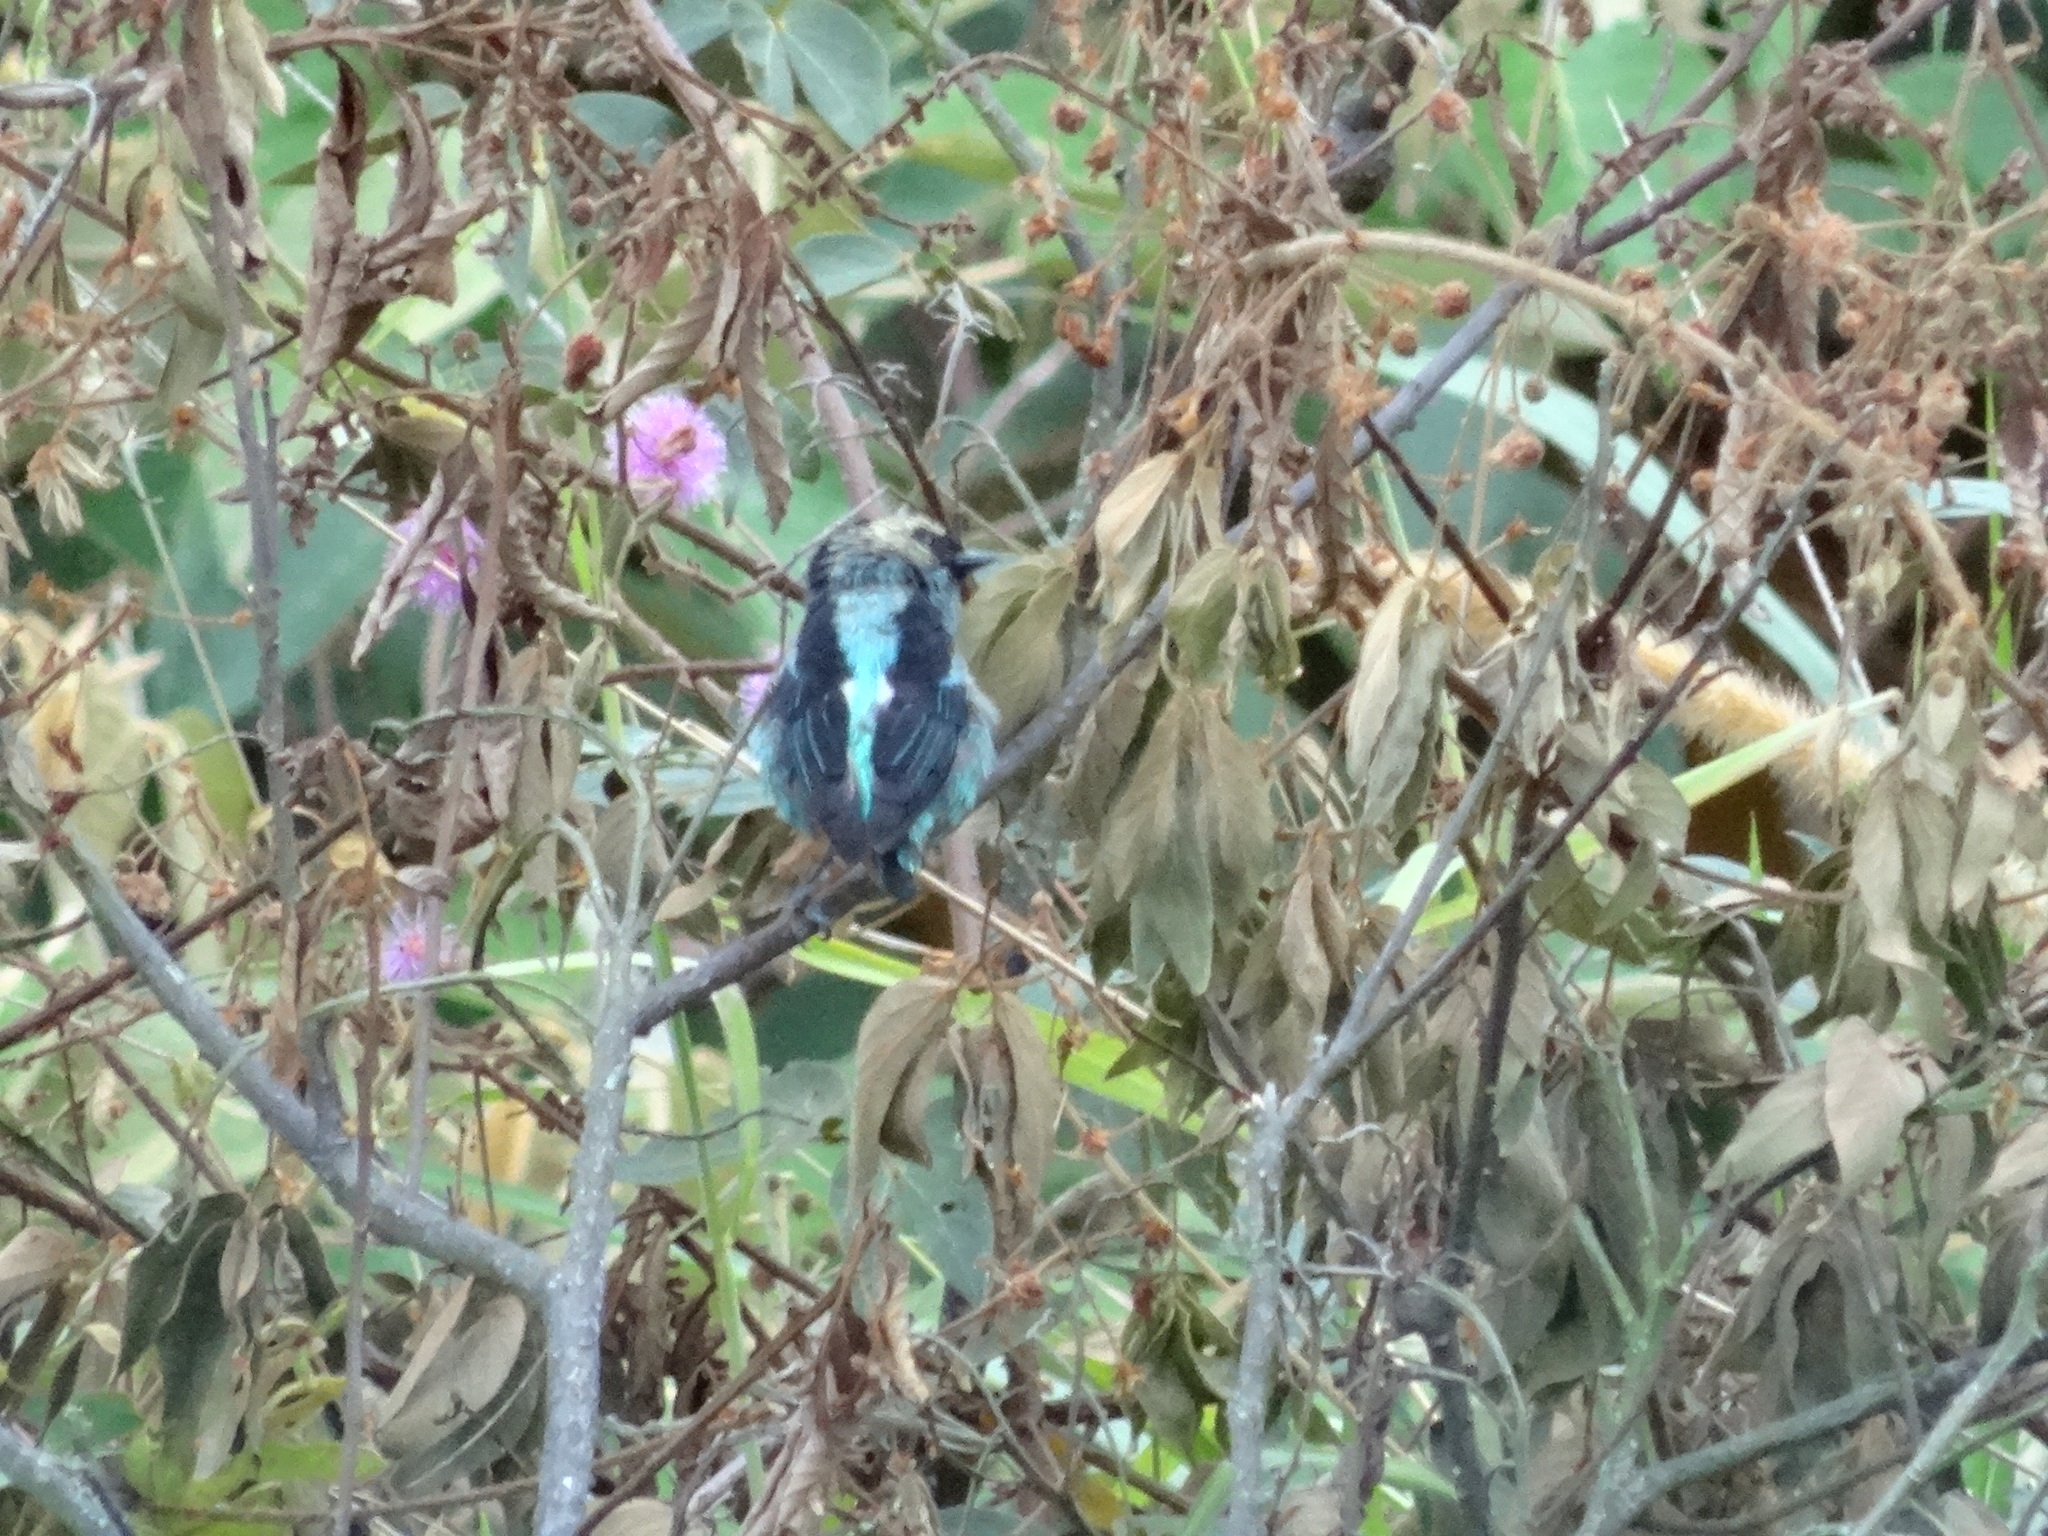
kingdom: Animalia
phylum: Chordata
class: Aves
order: Passeriformes
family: Thraupidae
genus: Tangara
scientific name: Tangara labradorides
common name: Metallic-green tanager
